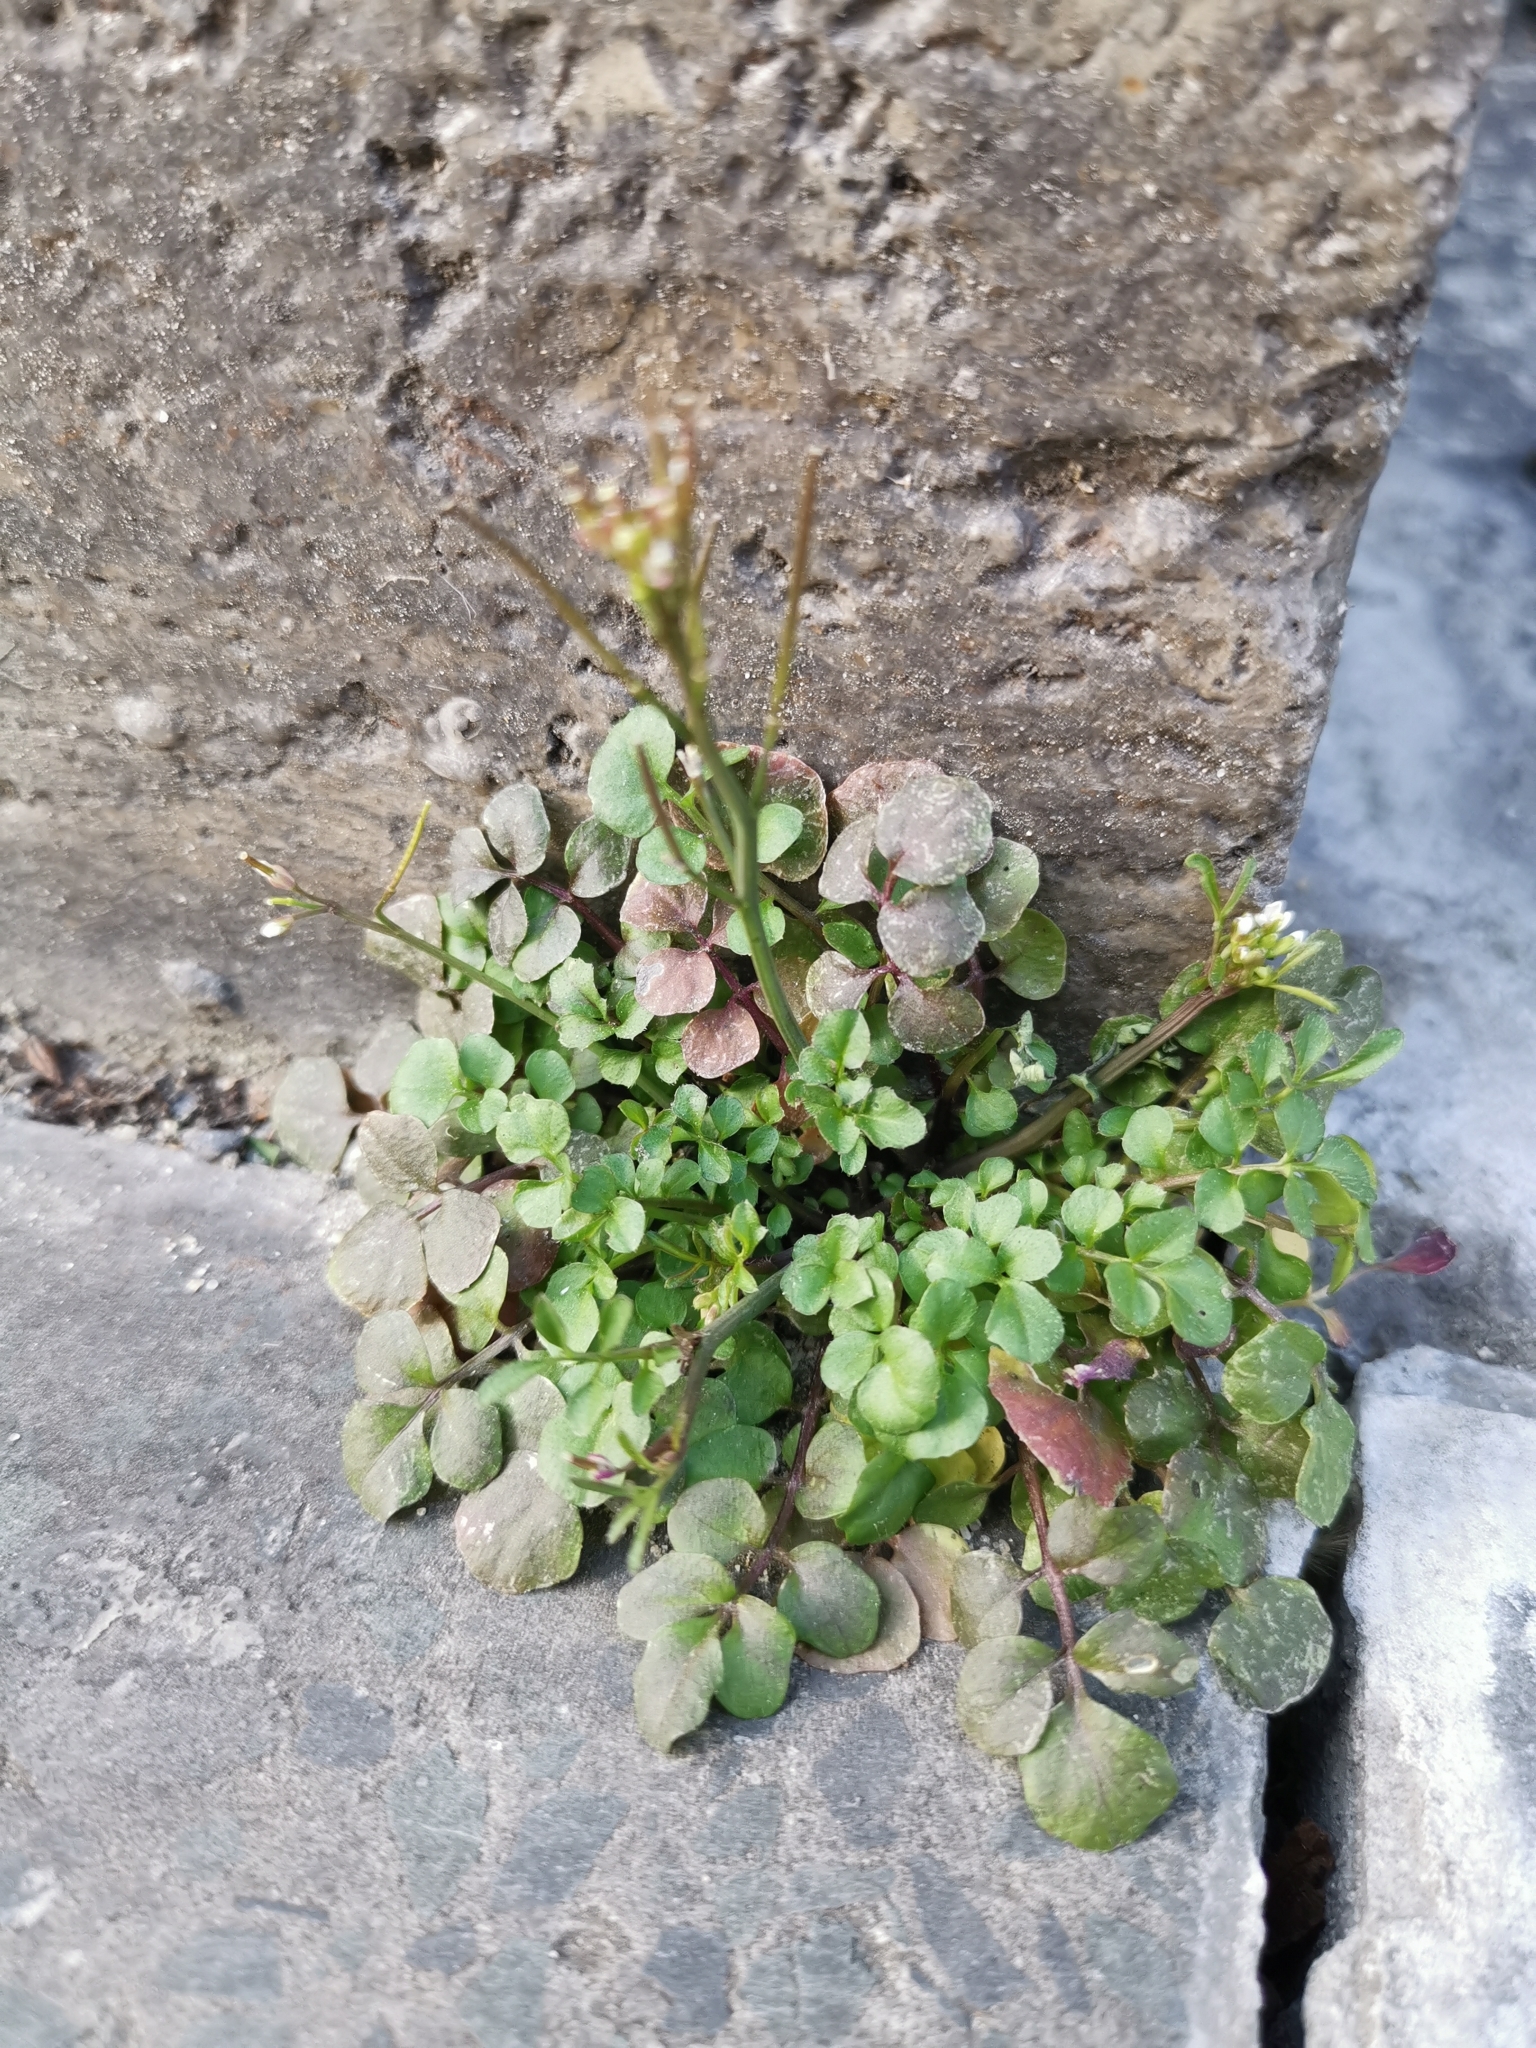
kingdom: Plantae
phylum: Tracheophyta
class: Magnoliopsida
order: Brassicales
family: Brassicaceae
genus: Cardamine
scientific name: Cardamine hirsuta
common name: Hairy bittercress
